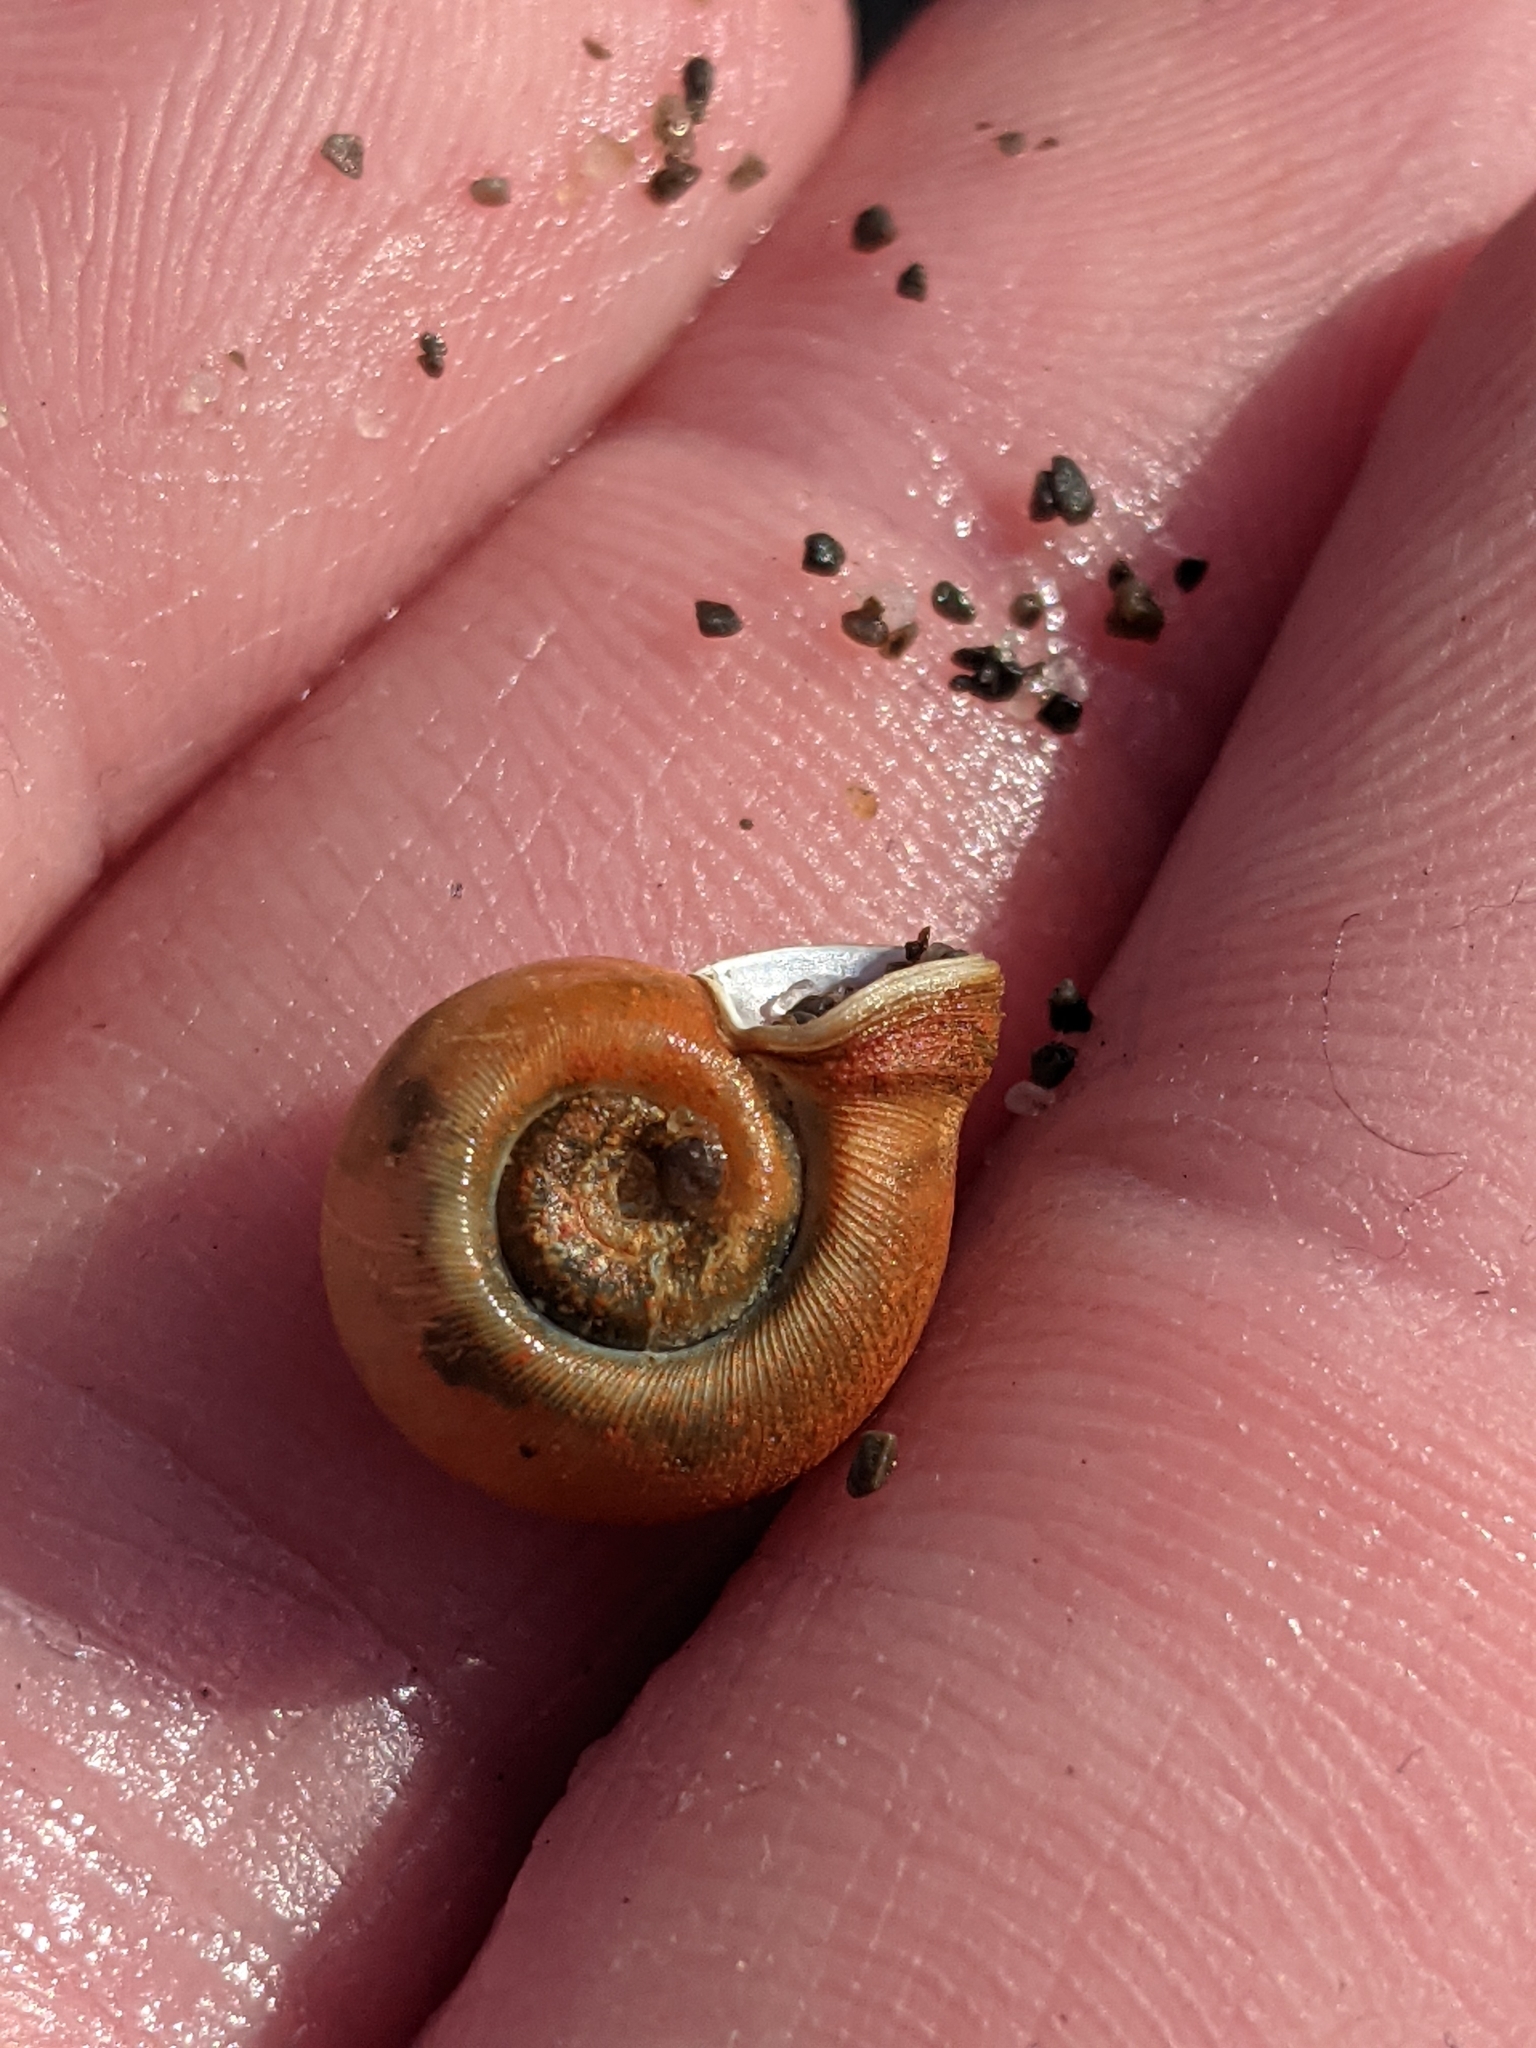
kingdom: Animalia
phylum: Mollusca
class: Gastropoda
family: Planorbidae
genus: Planorbella
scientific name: Planorbella trivolvis
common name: Marsh rams-horn
